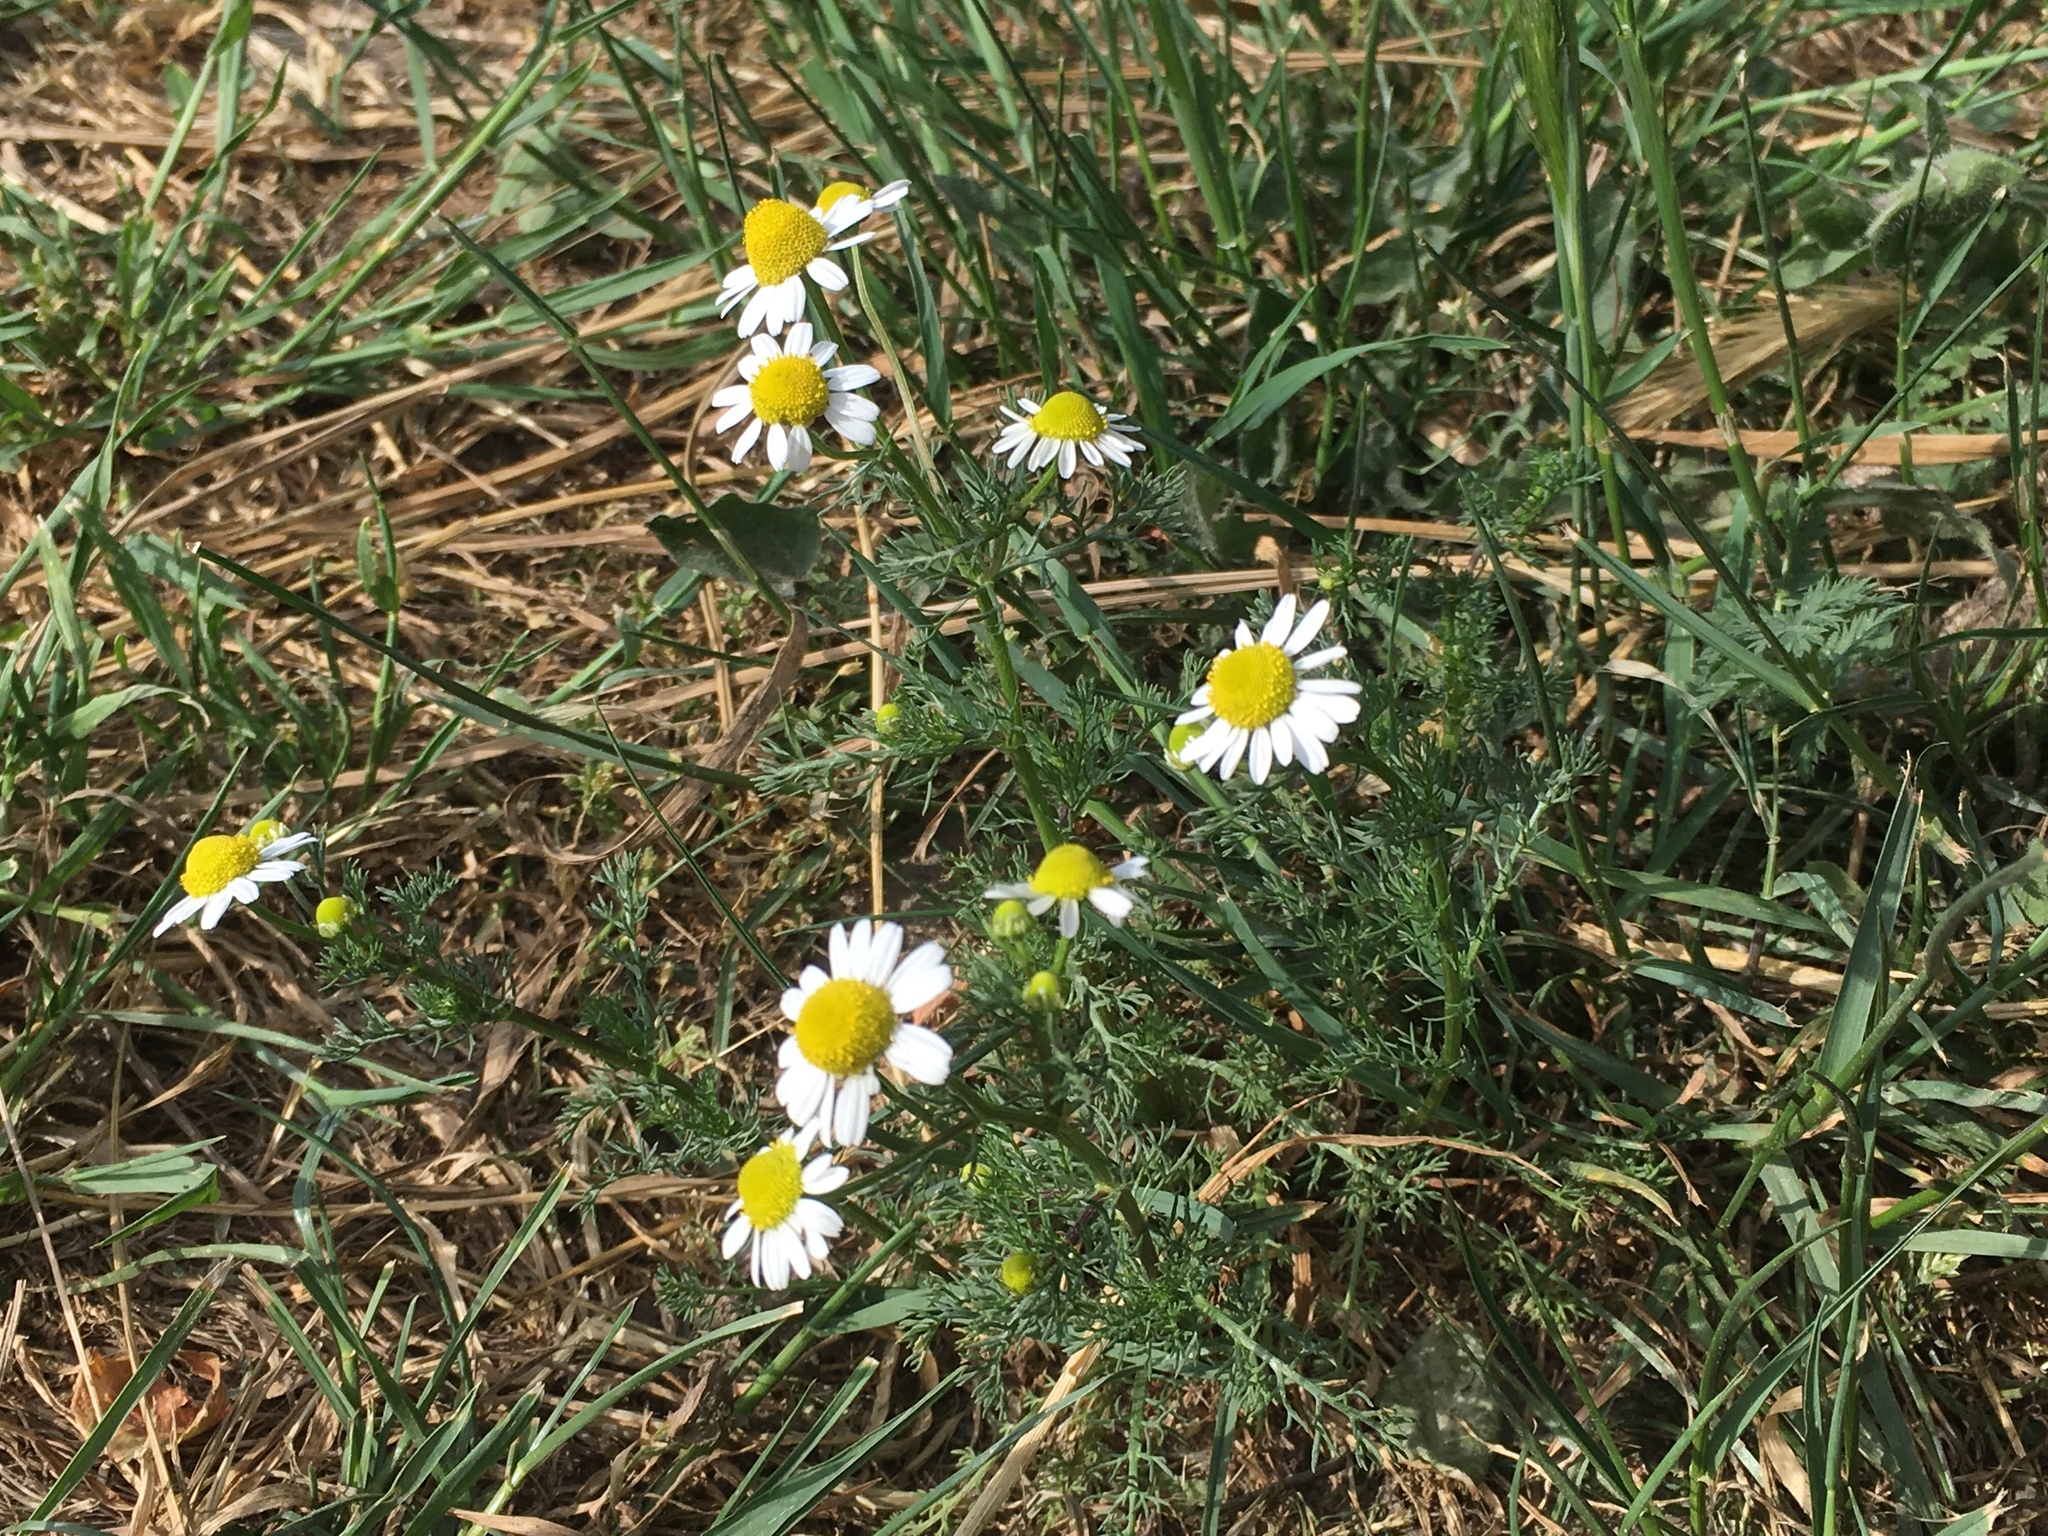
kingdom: Plantae
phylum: Tracheophyta
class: Magnoliopsida
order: Asterales
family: Asteraceae
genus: Matricaria
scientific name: Matricaria chamomilla
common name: Scented mayweed
